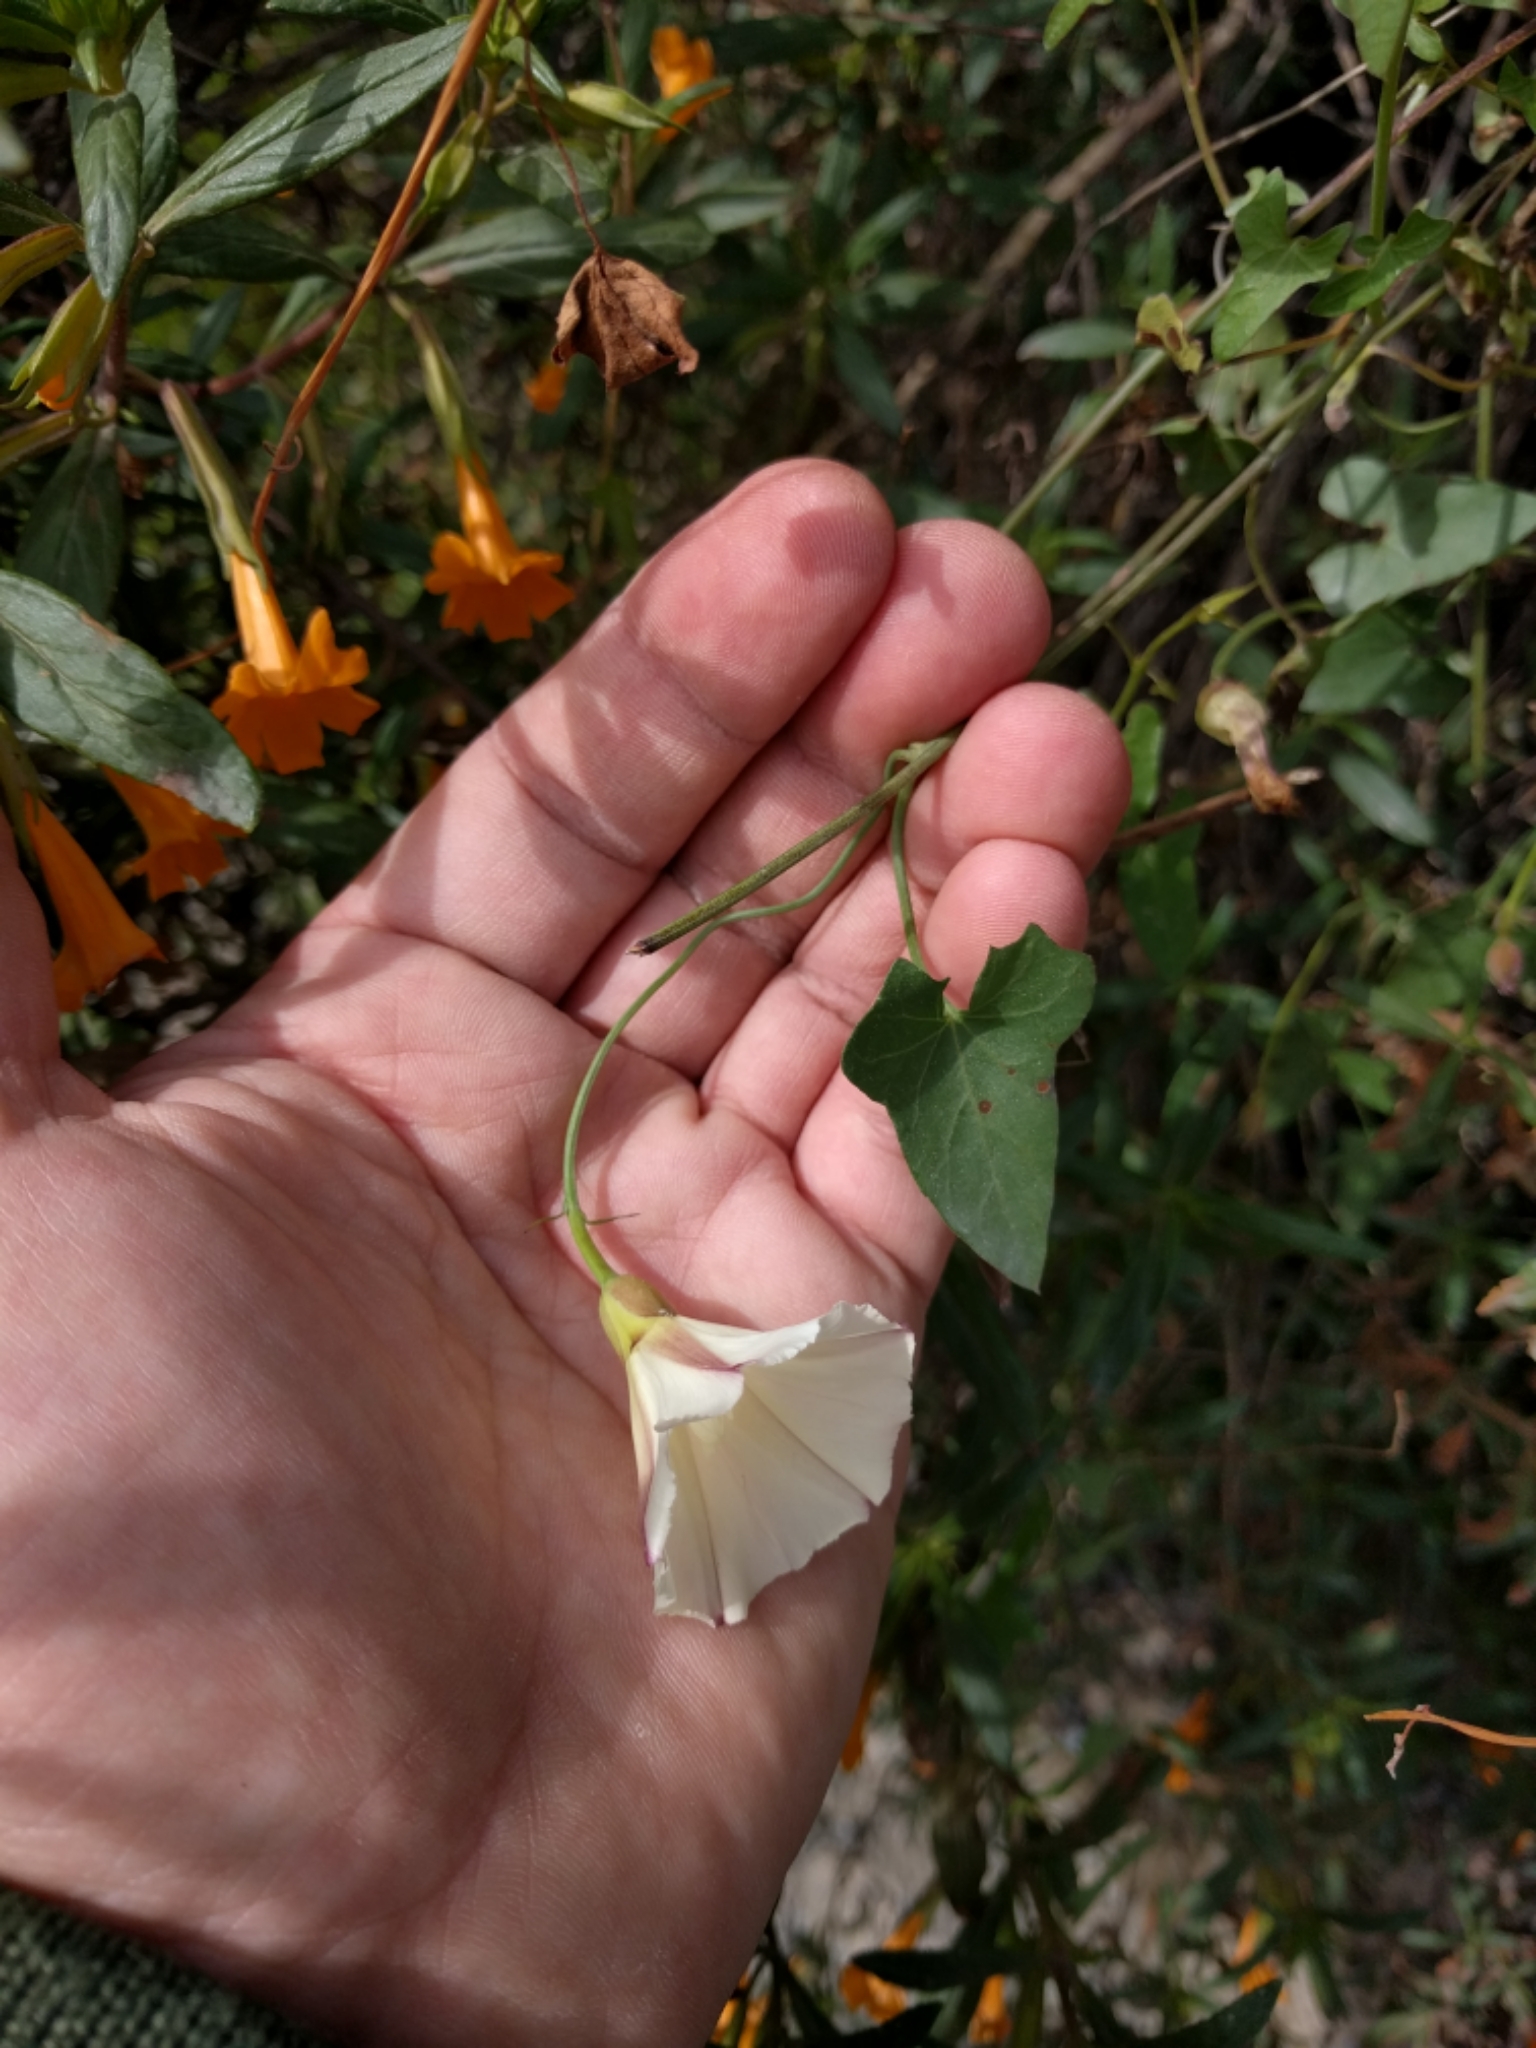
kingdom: Plantae
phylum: Tracheophyta
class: Magnoliopsida
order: Solanales
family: Convolvulaceae
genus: Calystegia
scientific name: Calystegia purpurata
